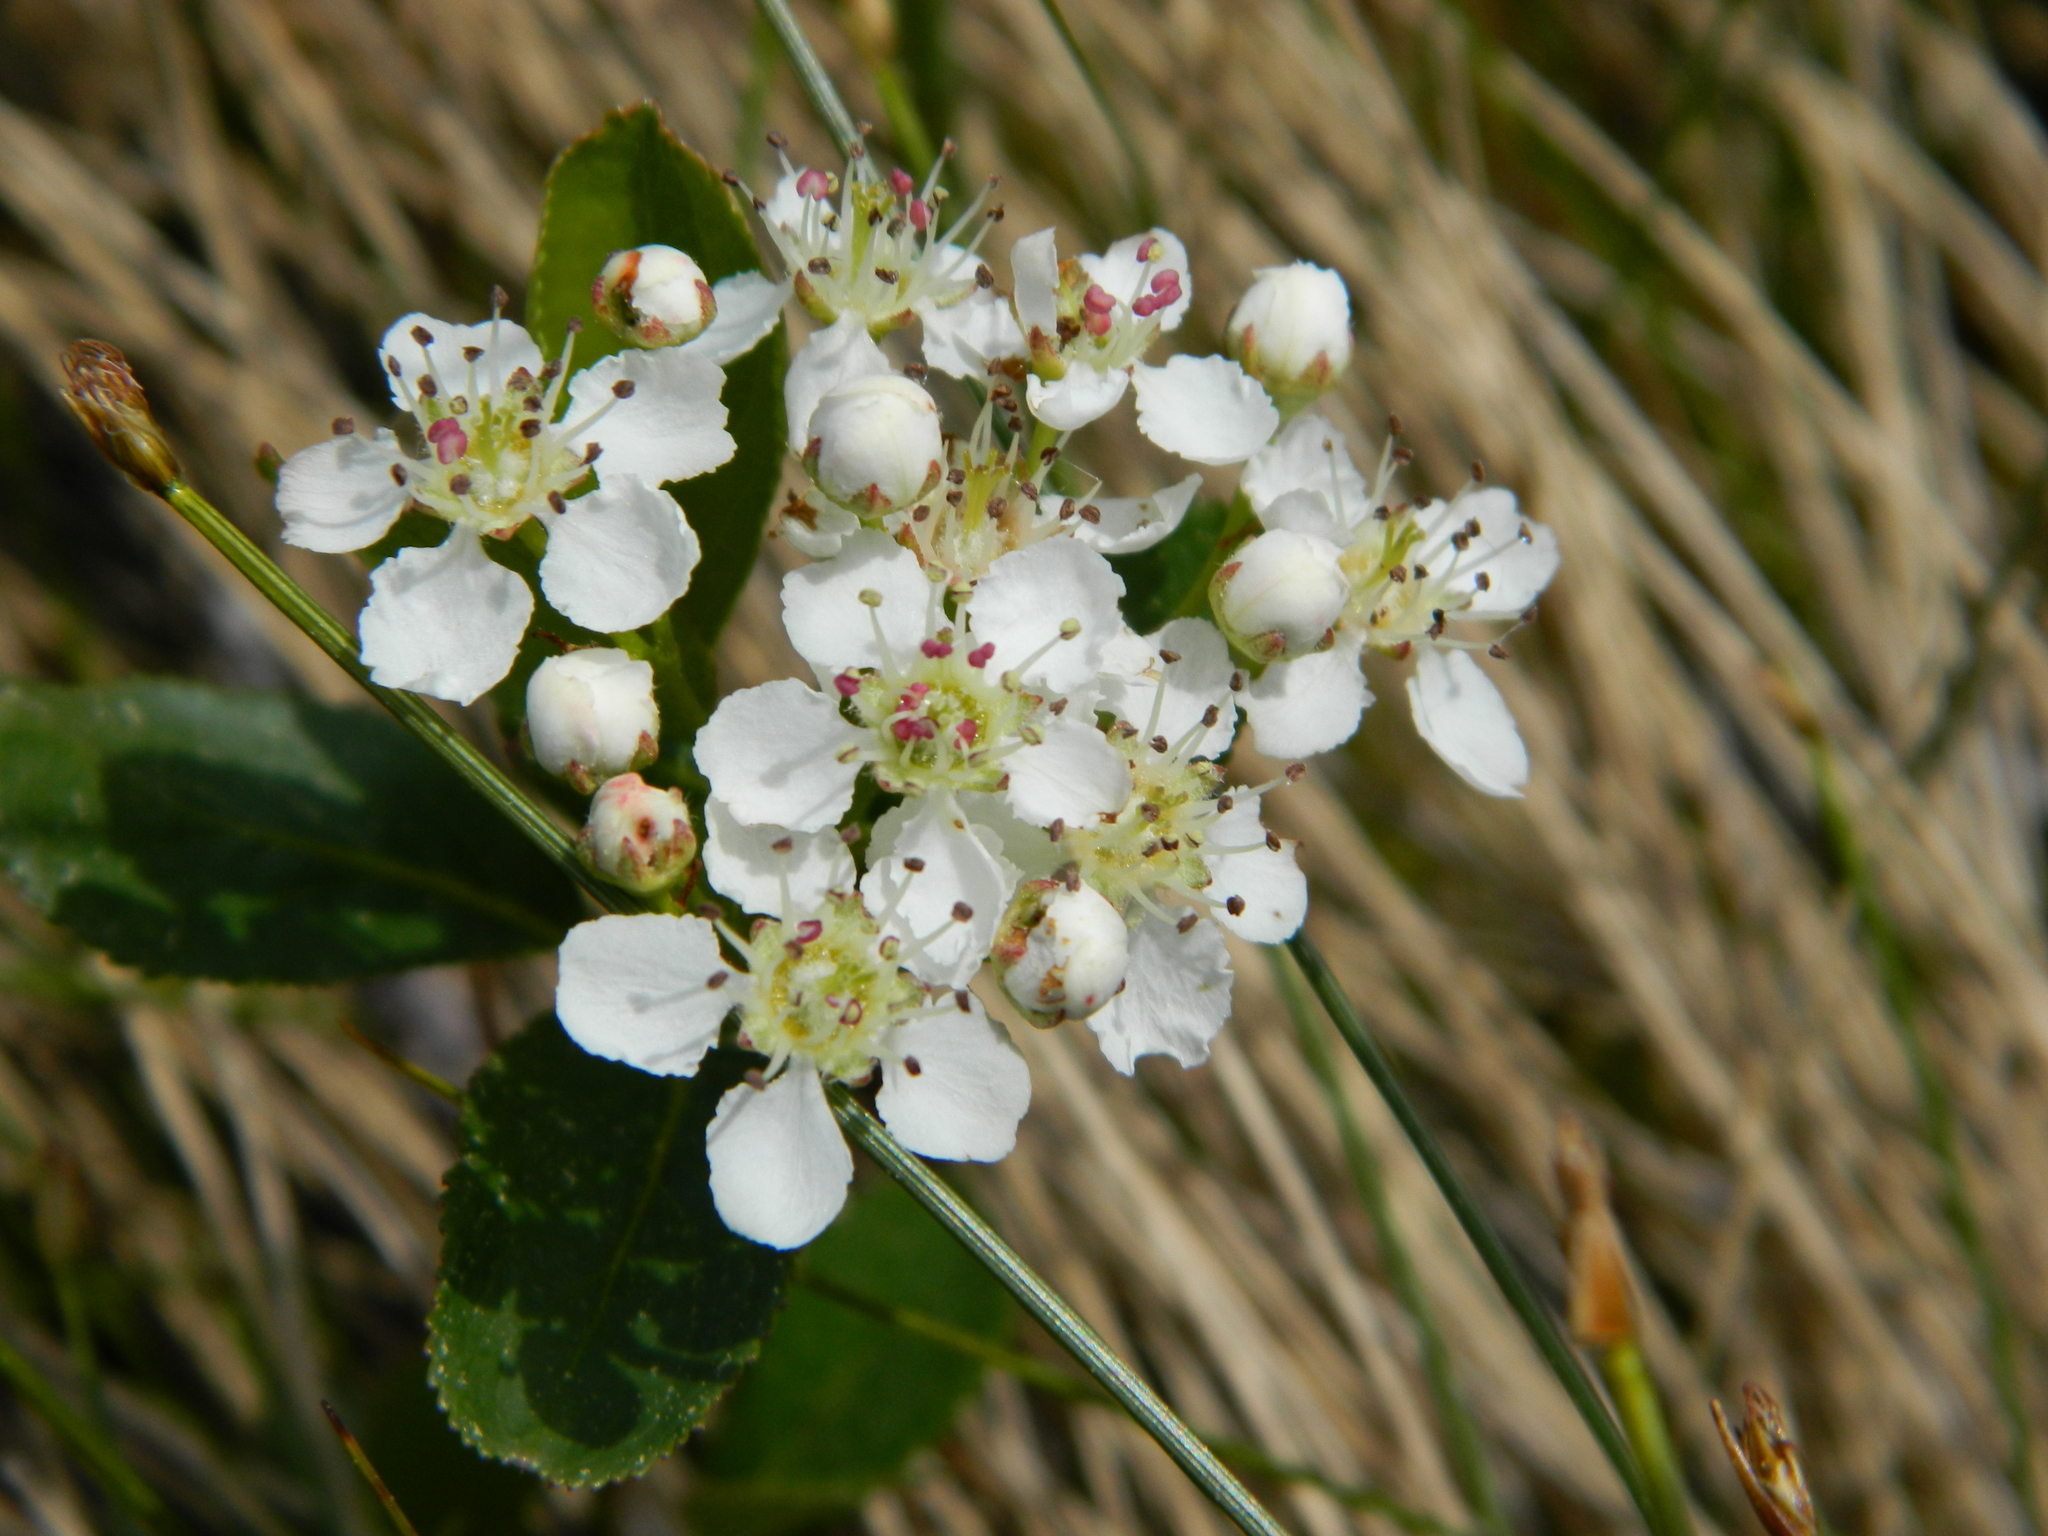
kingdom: Plantae
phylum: Tracheophyta
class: Magnoliopsida
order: Rosales
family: Rosaceae
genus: Aronia
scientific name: Aronia melanocarpa
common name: Black chokeberry
